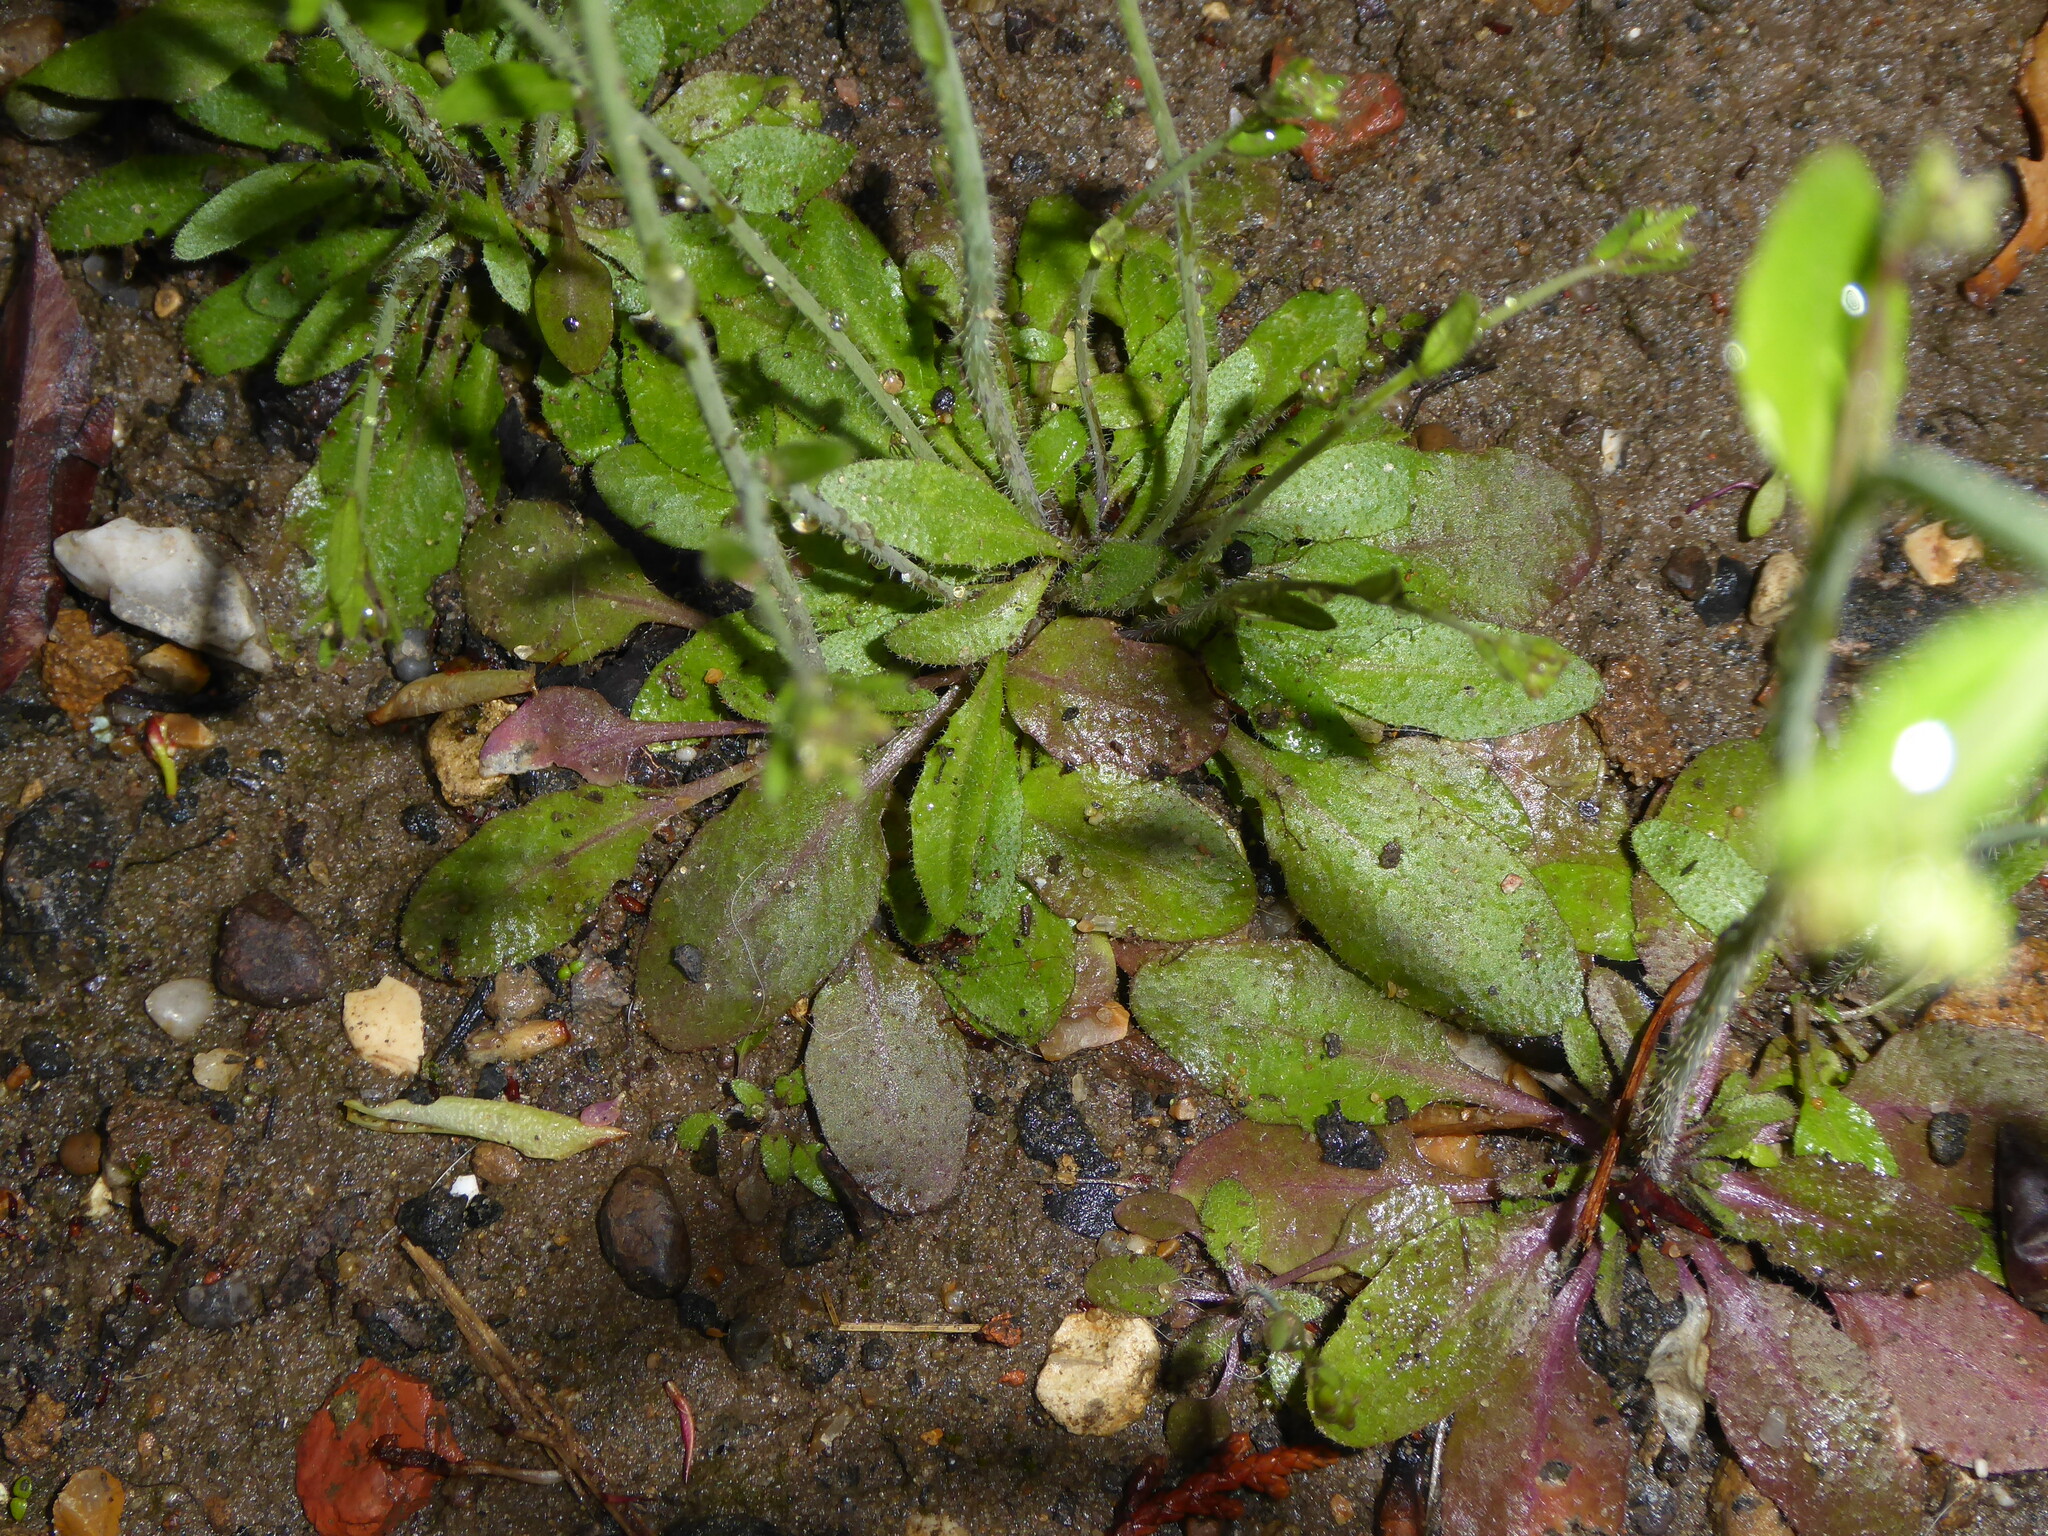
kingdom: Plantae
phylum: Tracheophyta
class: Magnoliopsida
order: Brassicales
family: Brassicaceae
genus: Arabidopsis
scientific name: Arabidopsis thaliana
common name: Thale cress
